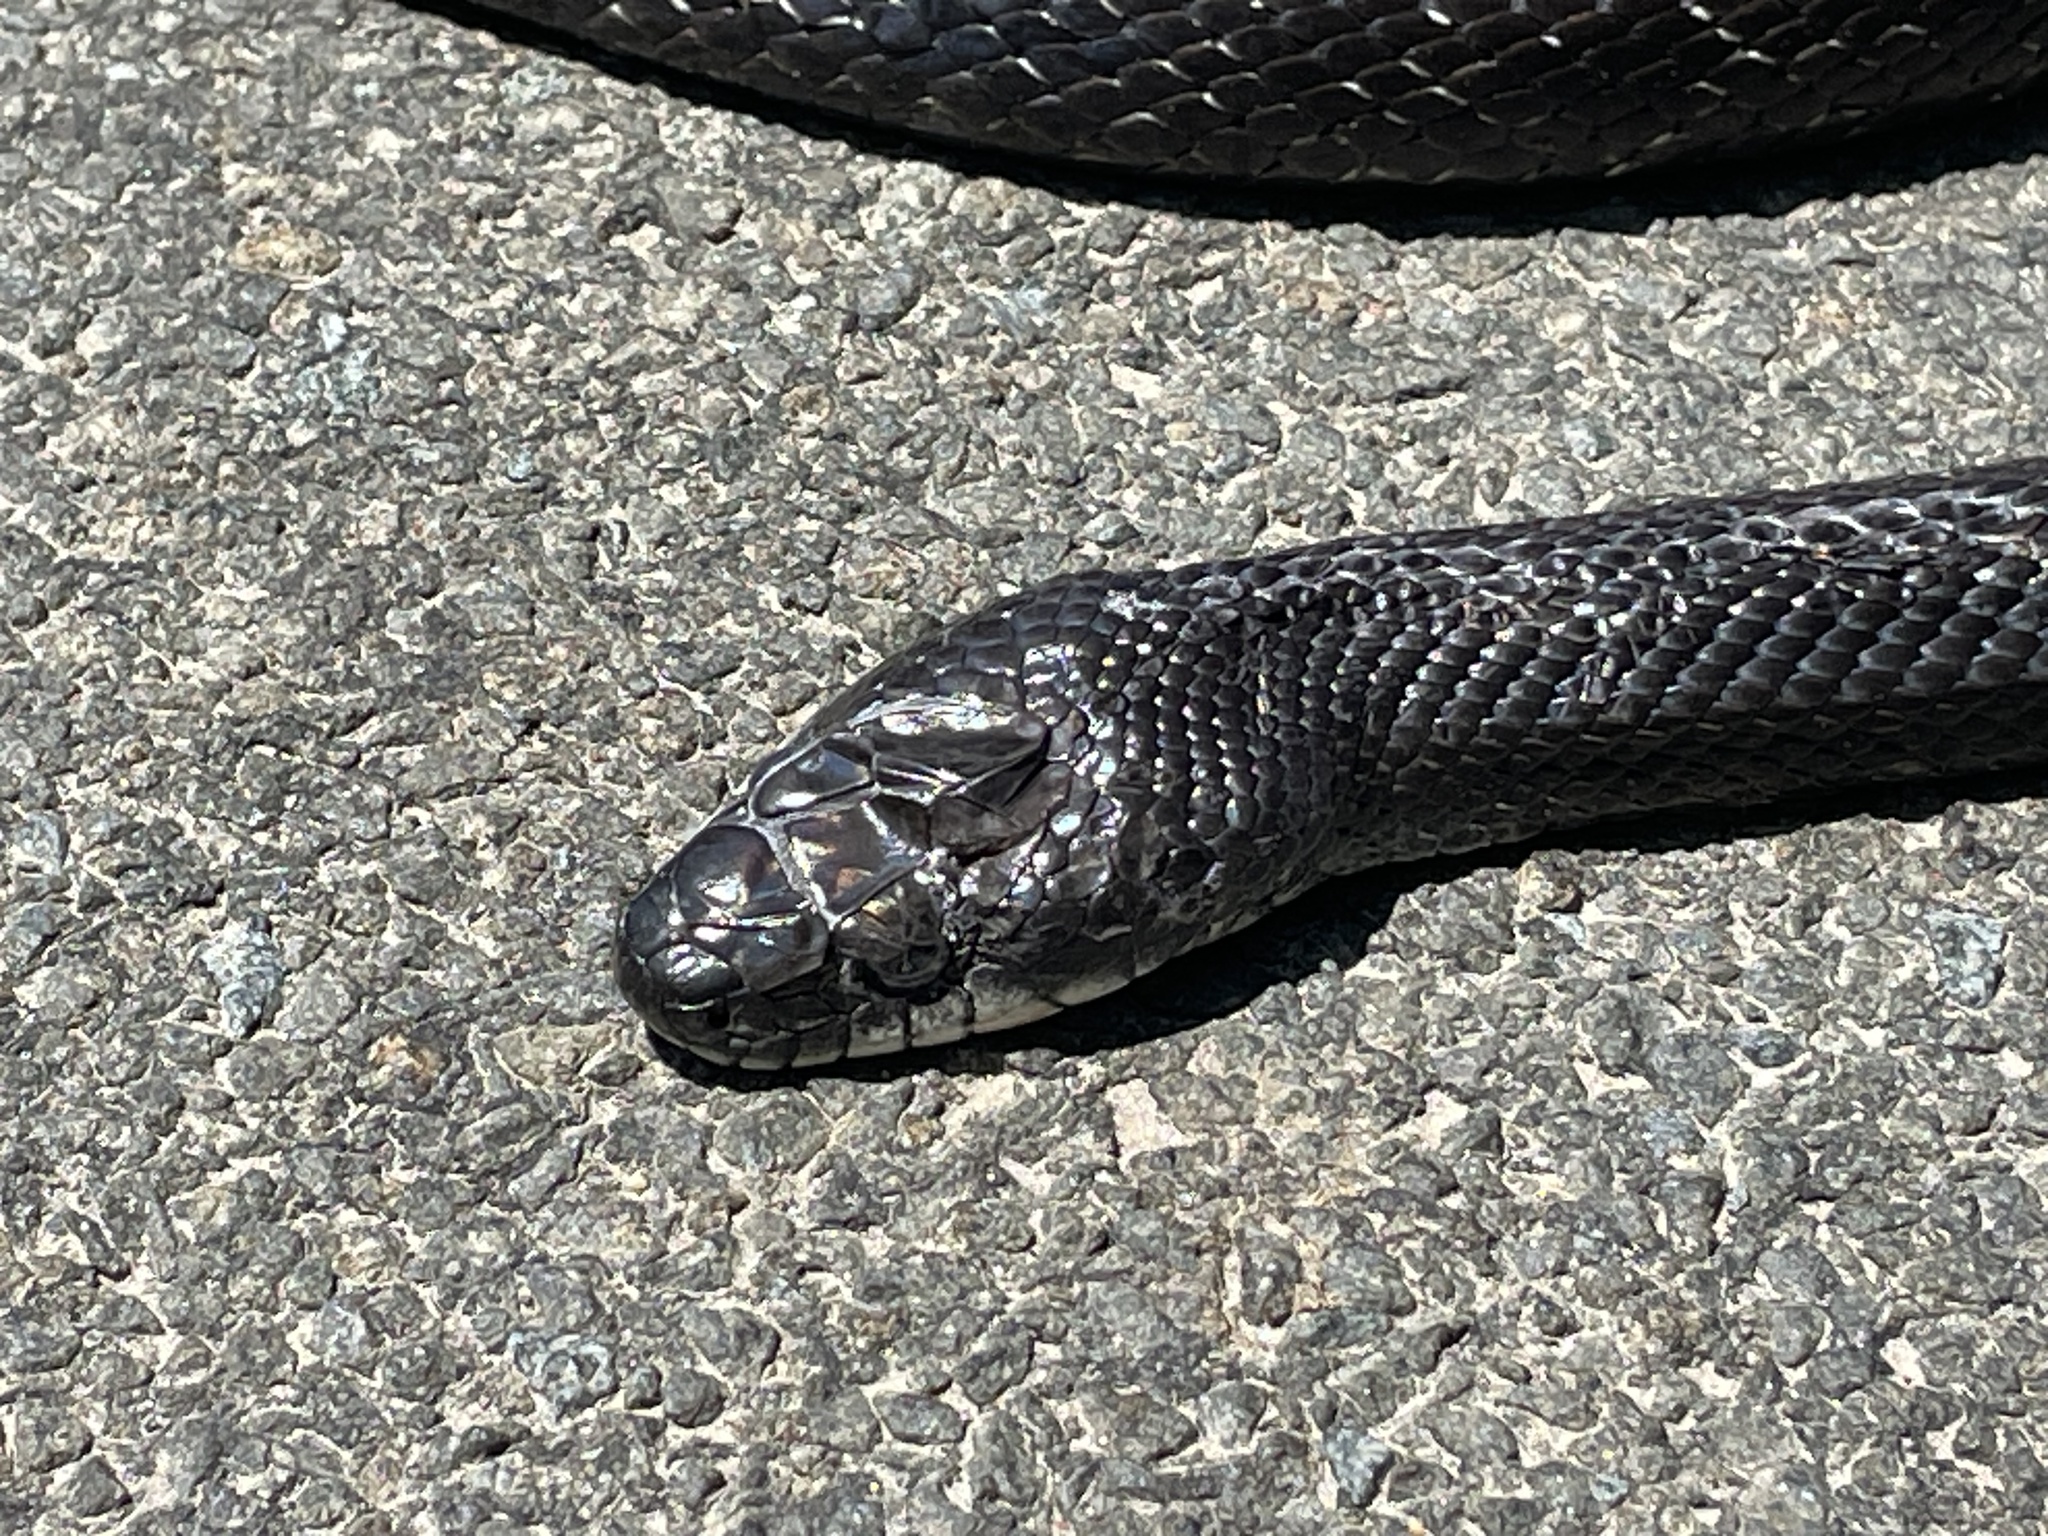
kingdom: Animalia
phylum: Chordata
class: Squamata
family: Colubridae
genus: Pantherophis
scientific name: Pantherophis alleghaniensis
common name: Eastern rat snake
